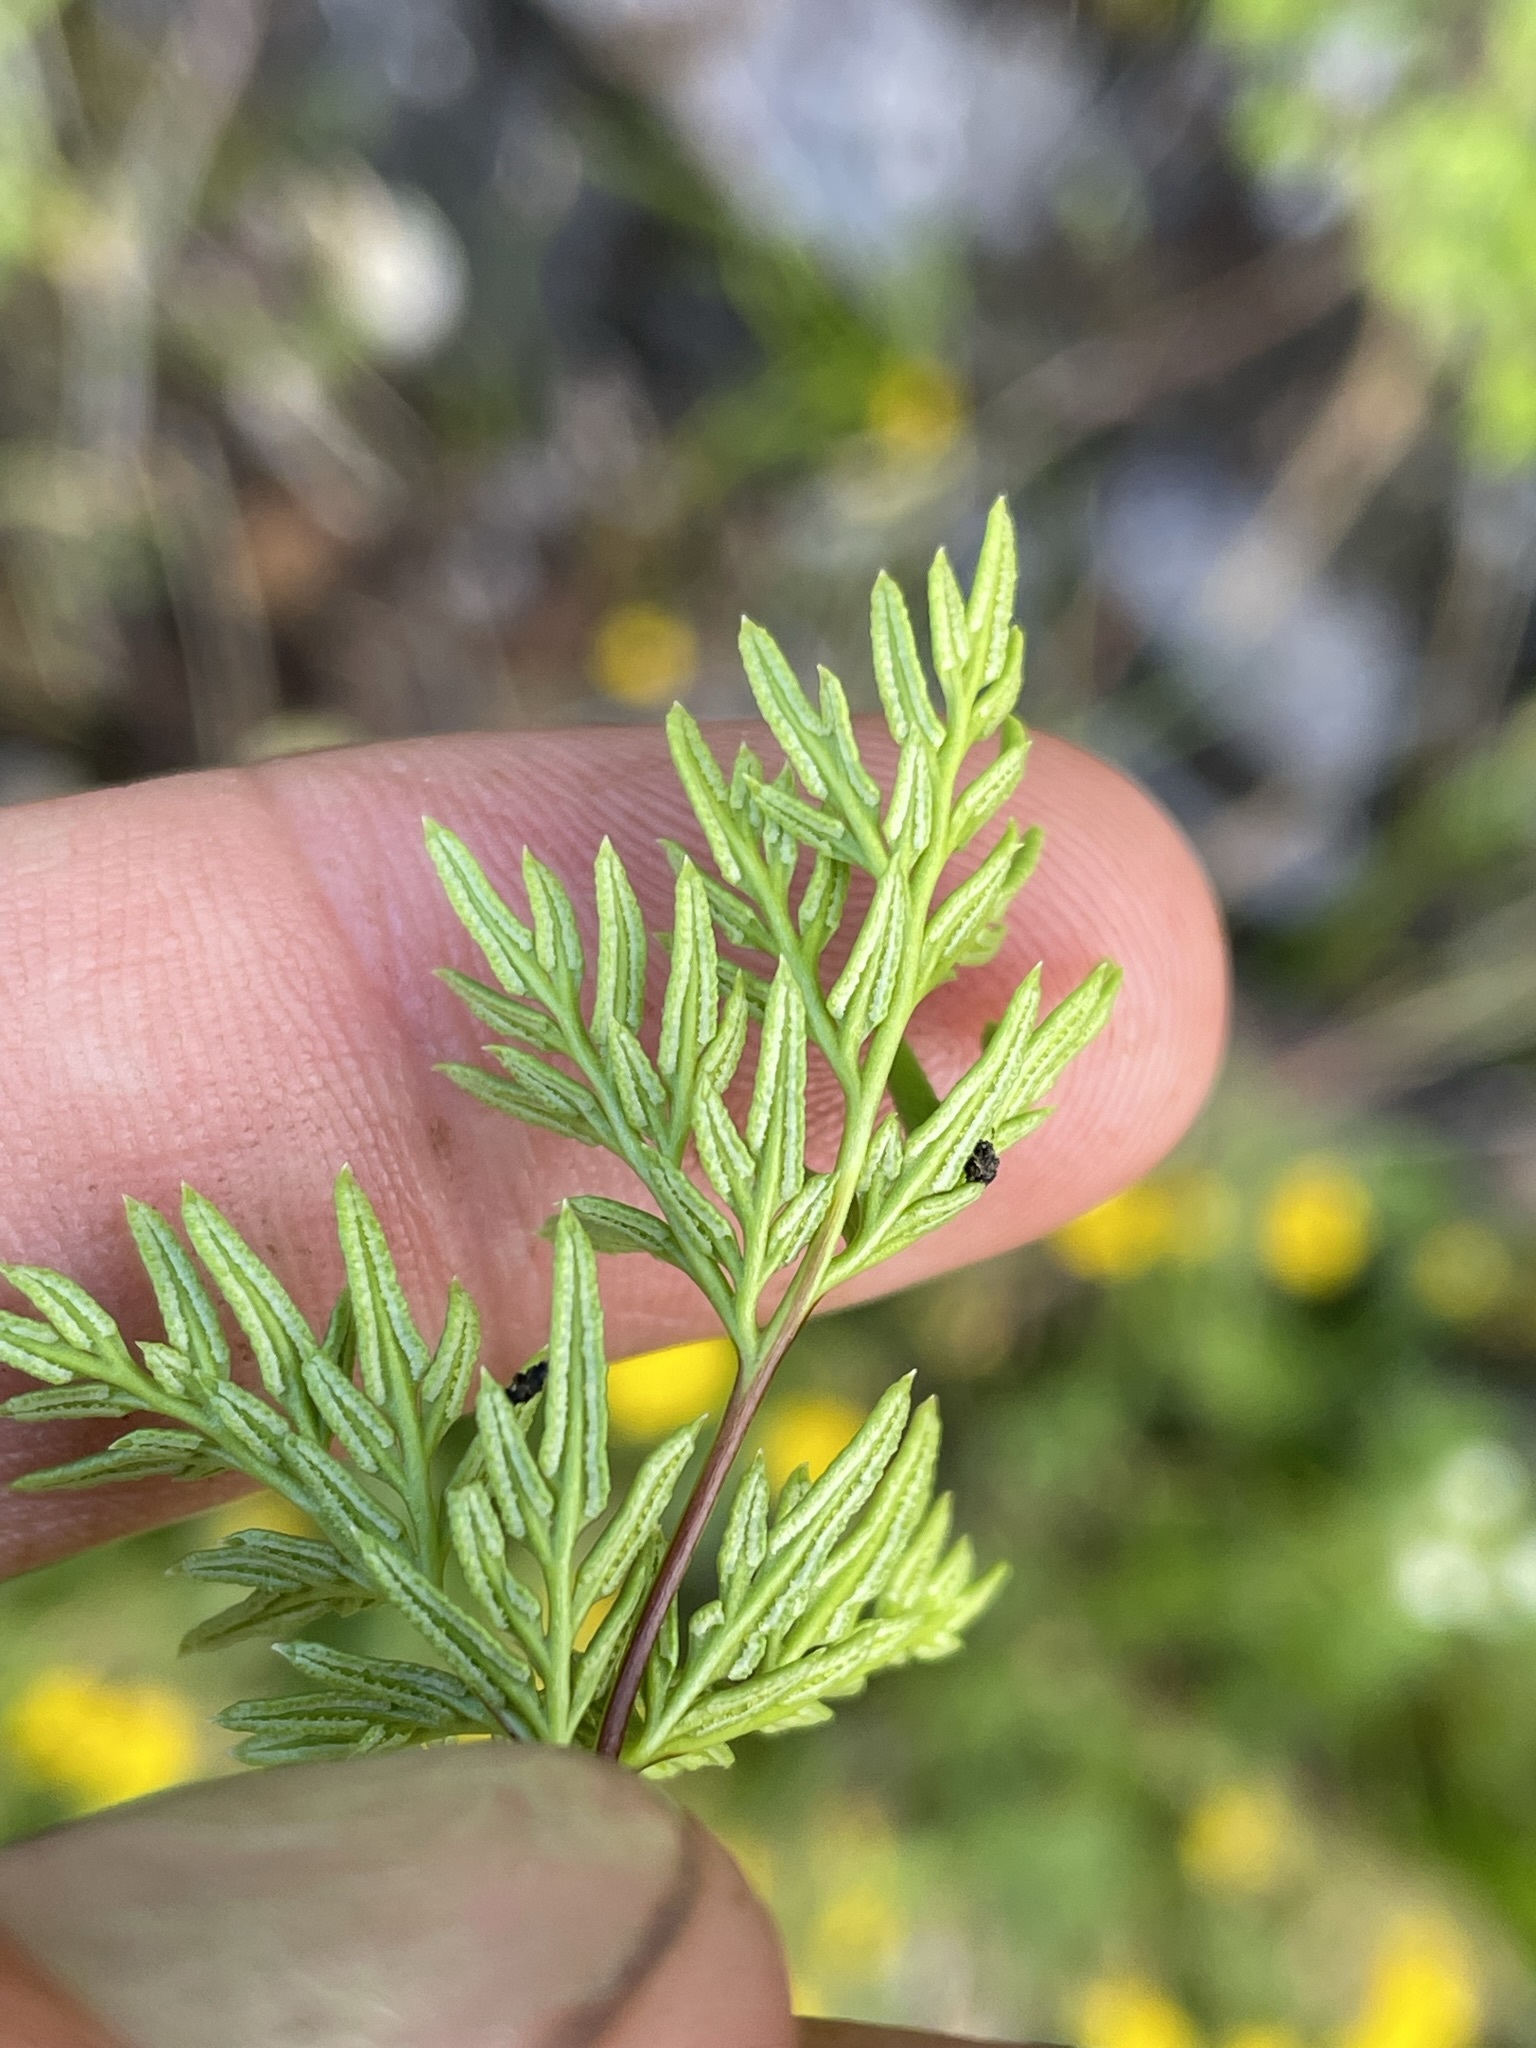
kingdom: Plantae
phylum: Tracheophyta
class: Polypodiopsida
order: Polypodiales
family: Pteridaceae
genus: Aspidotis
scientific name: Aspidotis densa
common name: Indian's dream
